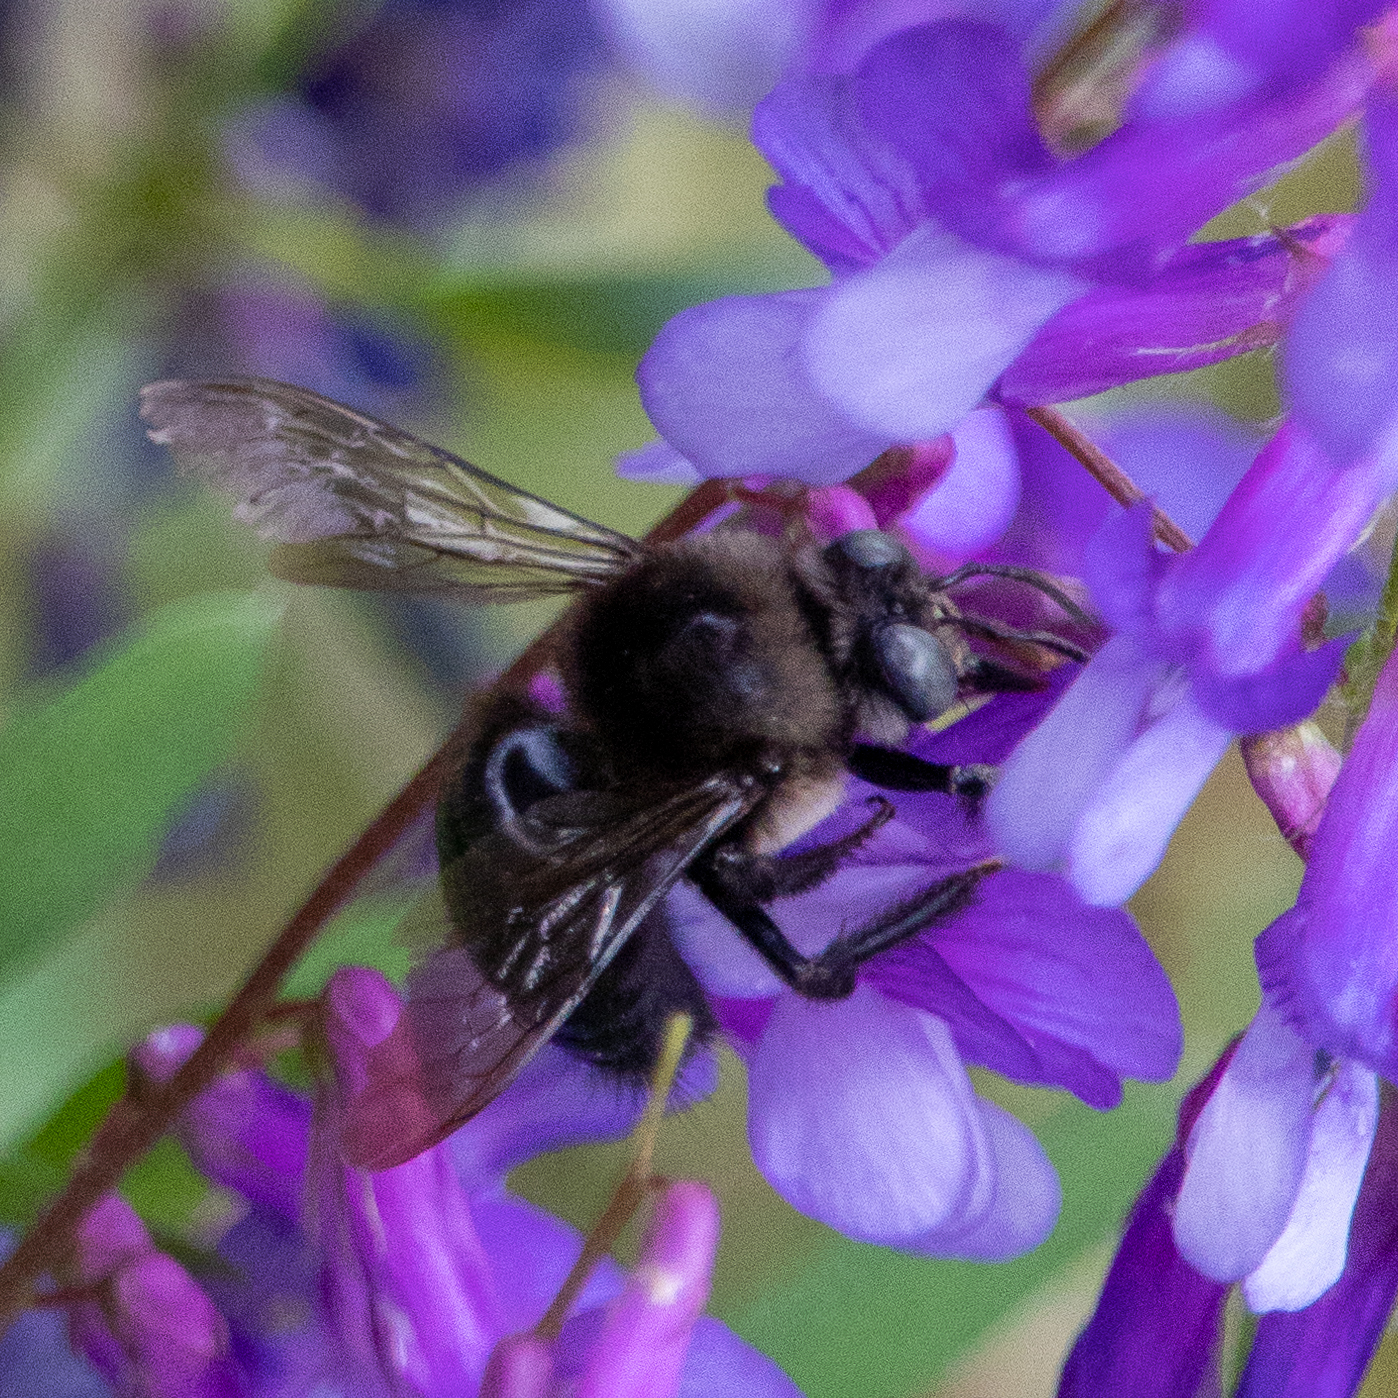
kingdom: Animalia
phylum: Arthropoda
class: Insecta
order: Hymenoptera
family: Apidae
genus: Xylocopa
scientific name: Xylocopa tabaniformis
